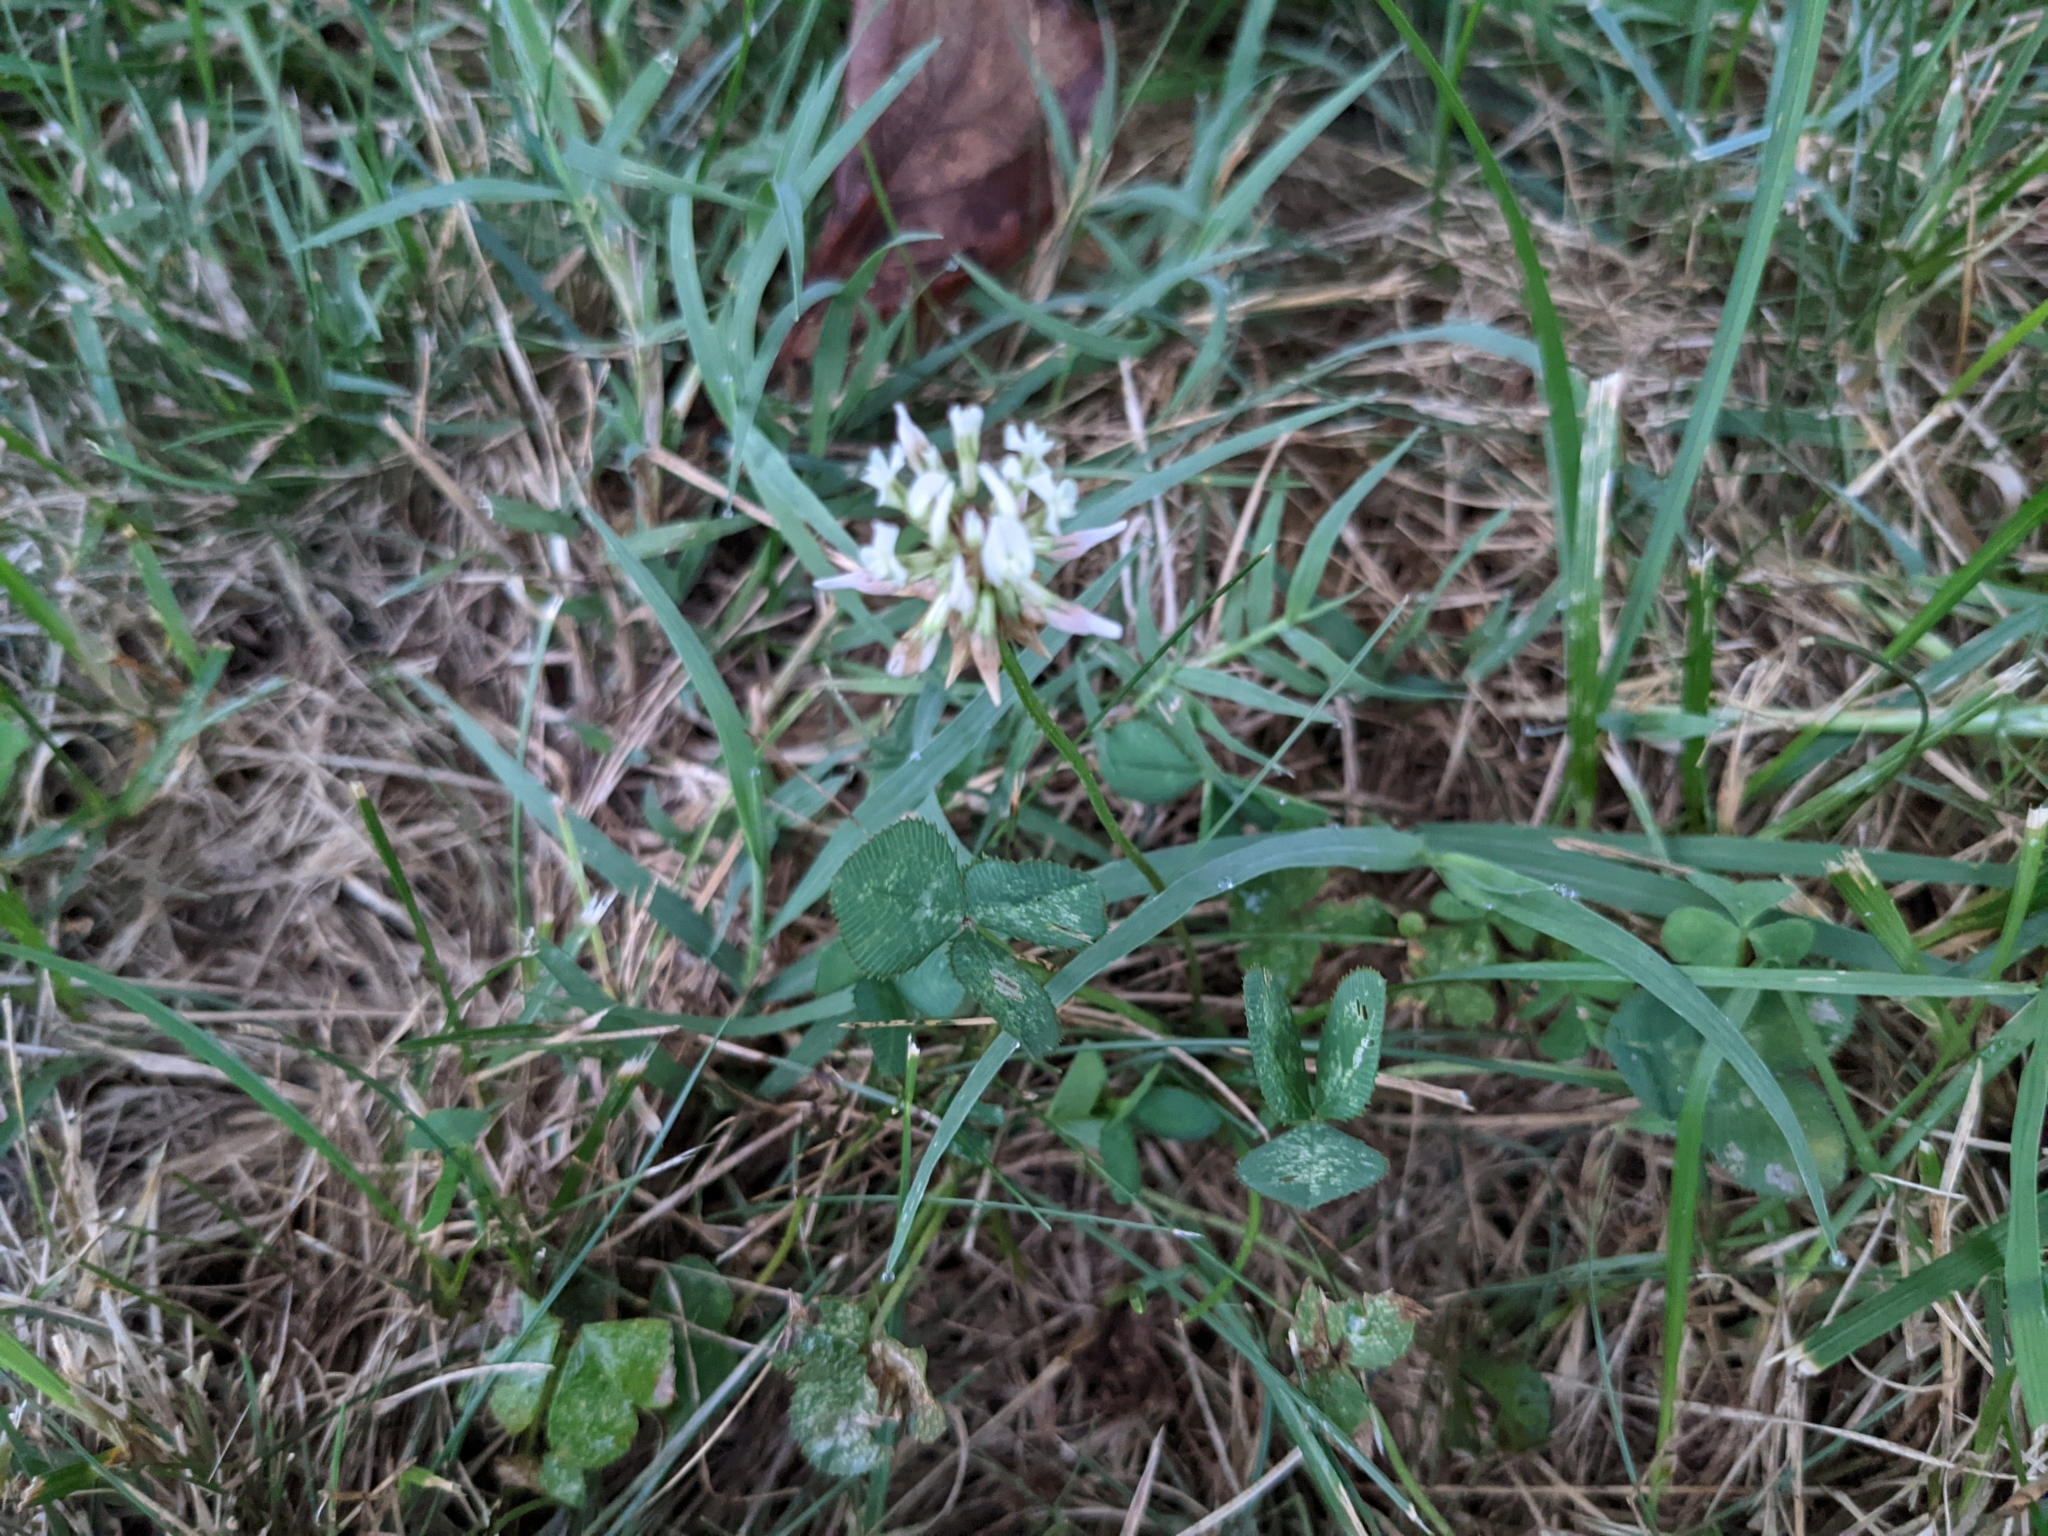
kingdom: Plantae
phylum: Tracheophyta
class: Magnoliopsida
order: Fabales
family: Fabaceae
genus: Trifolium
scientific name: Trifolium repens
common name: White clover
